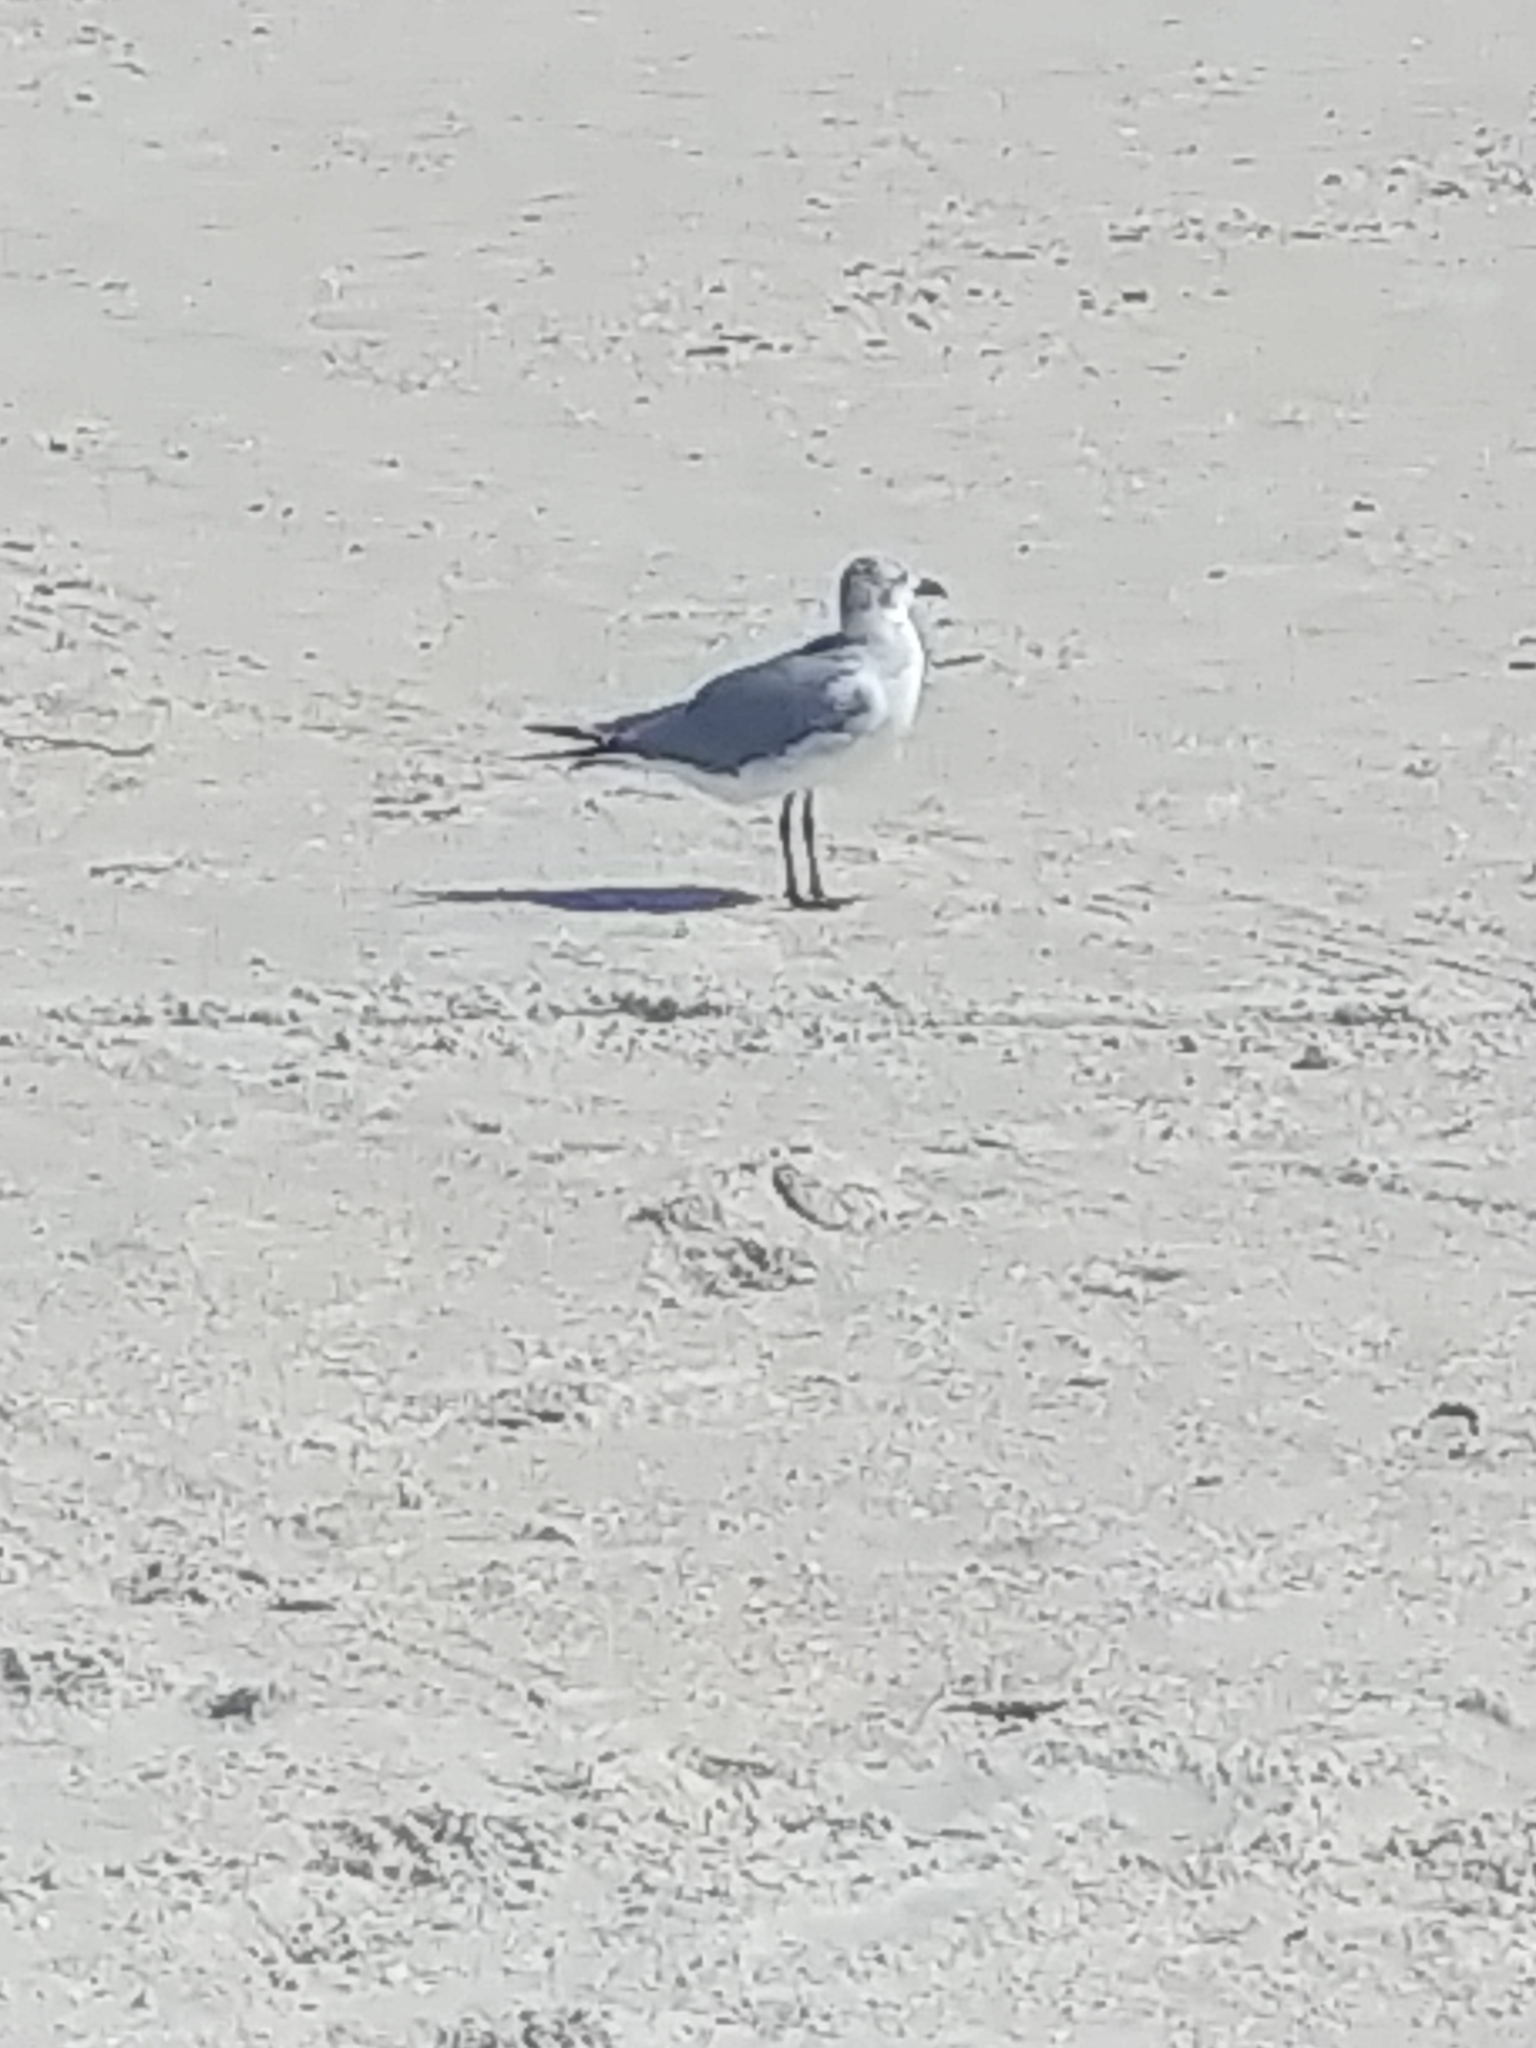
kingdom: Animalia
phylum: Chordata
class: Aves
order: Charadriiformes
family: Laridae
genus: Leucophaeus
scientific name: Leucophaeus atricilla
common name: Laughing gull
